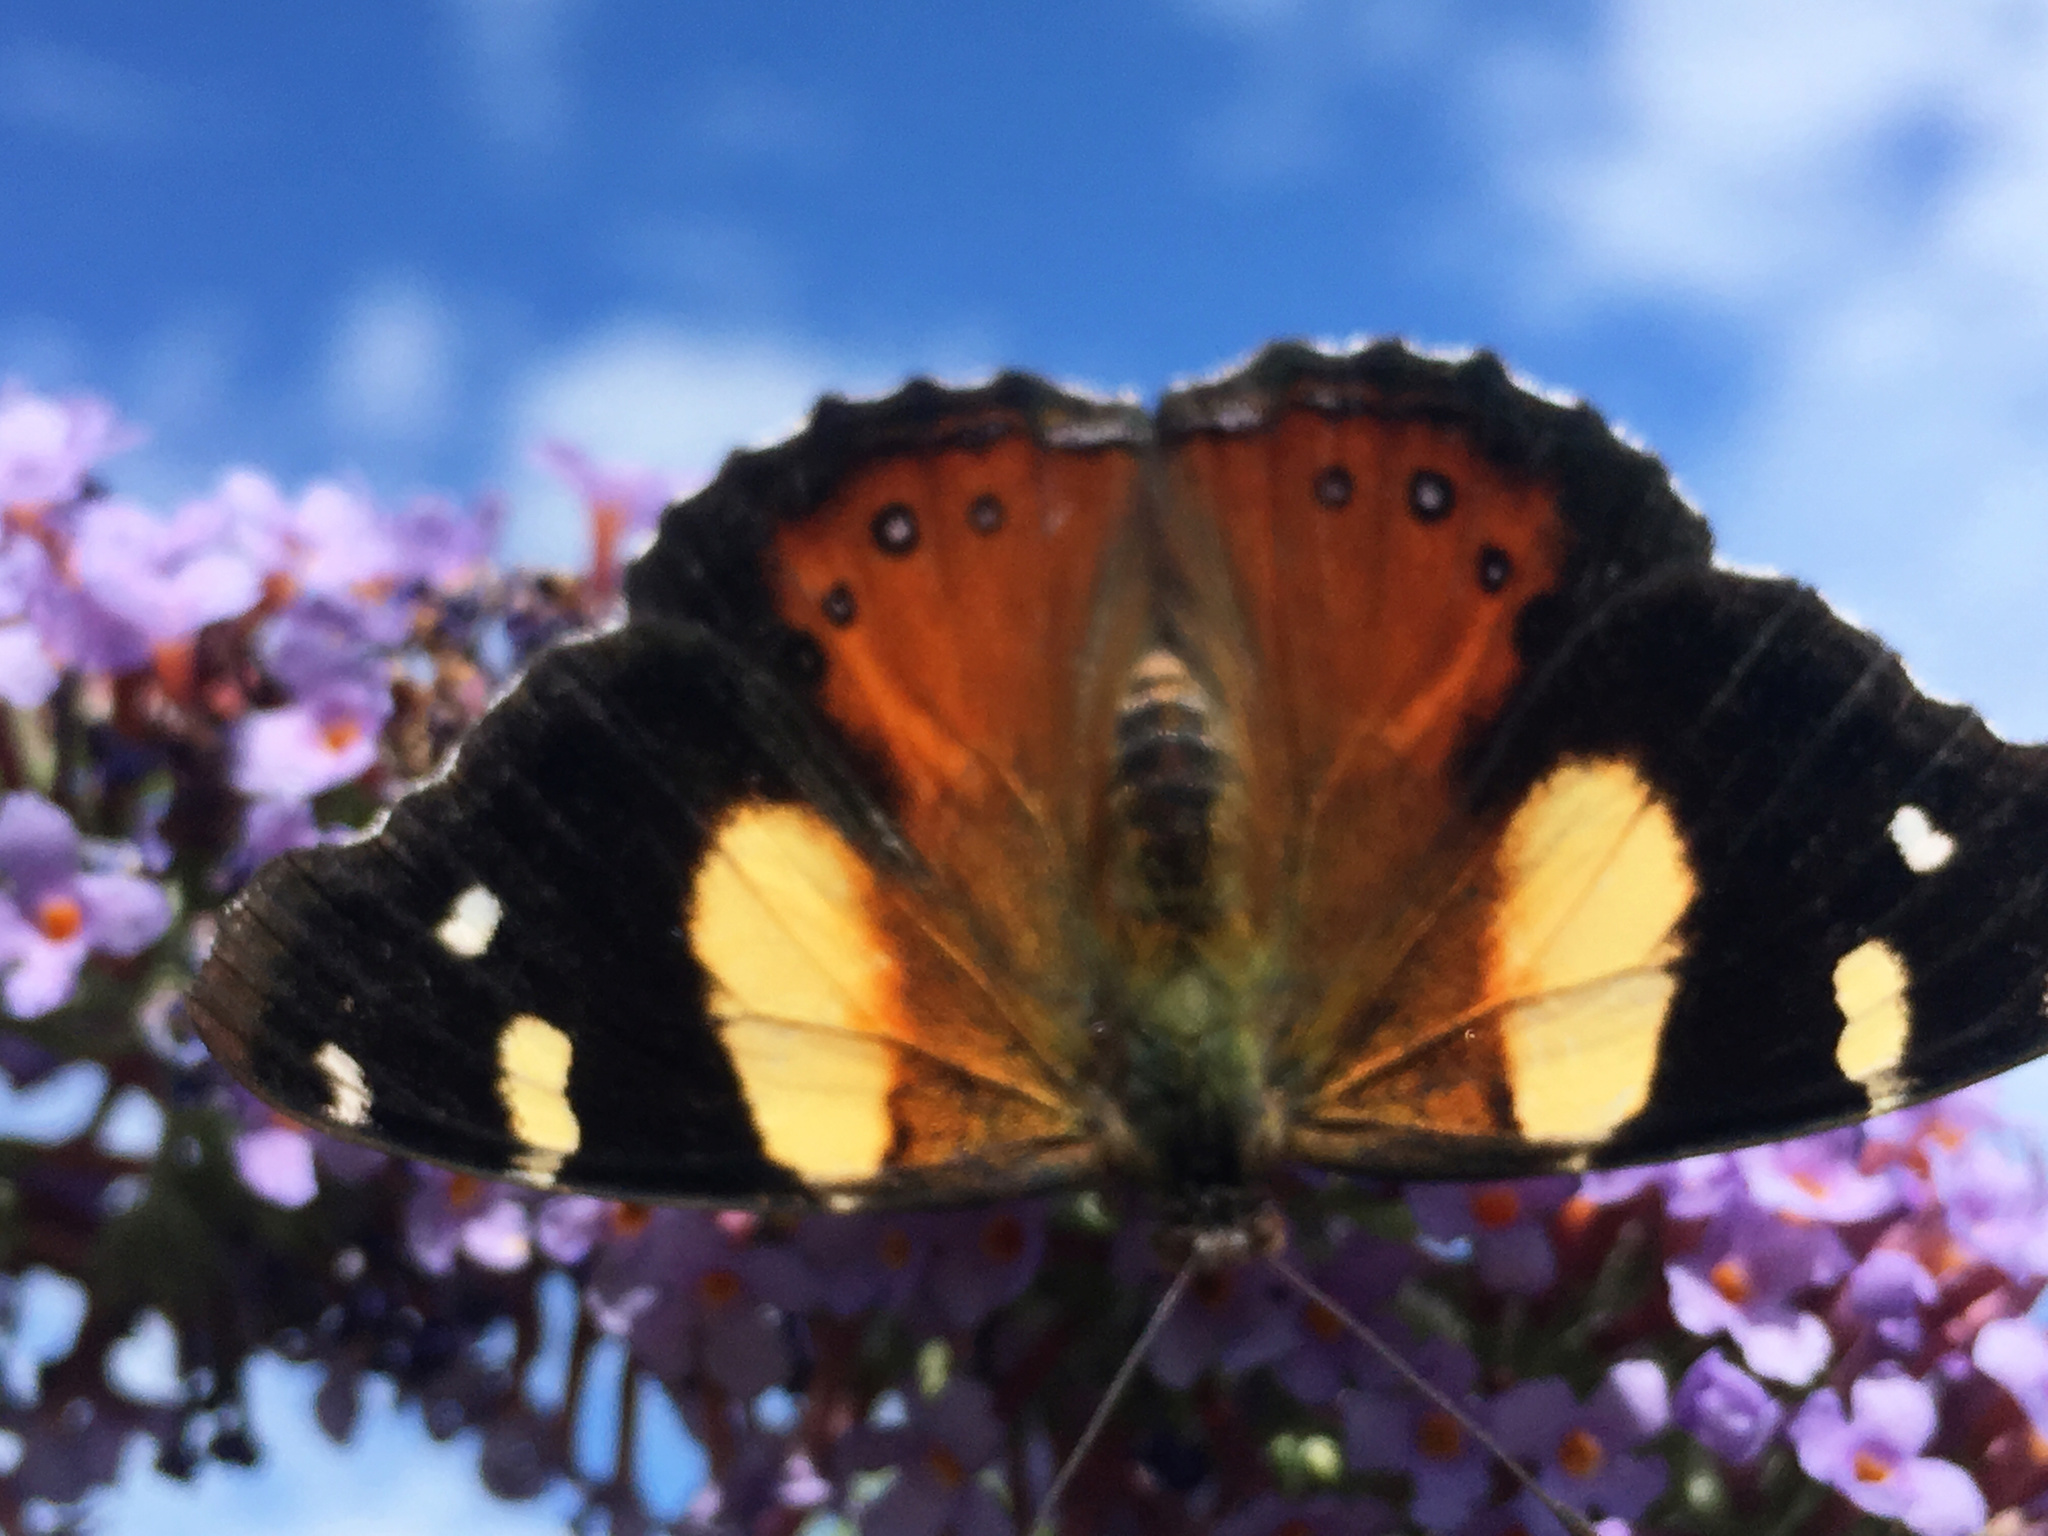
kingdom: Animalia
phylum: Arthropoda
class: Insecta
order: Lepidoptera
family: Nymphalidae
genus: Vanessa
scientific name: Vanessa itea
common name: Yellow admiral
